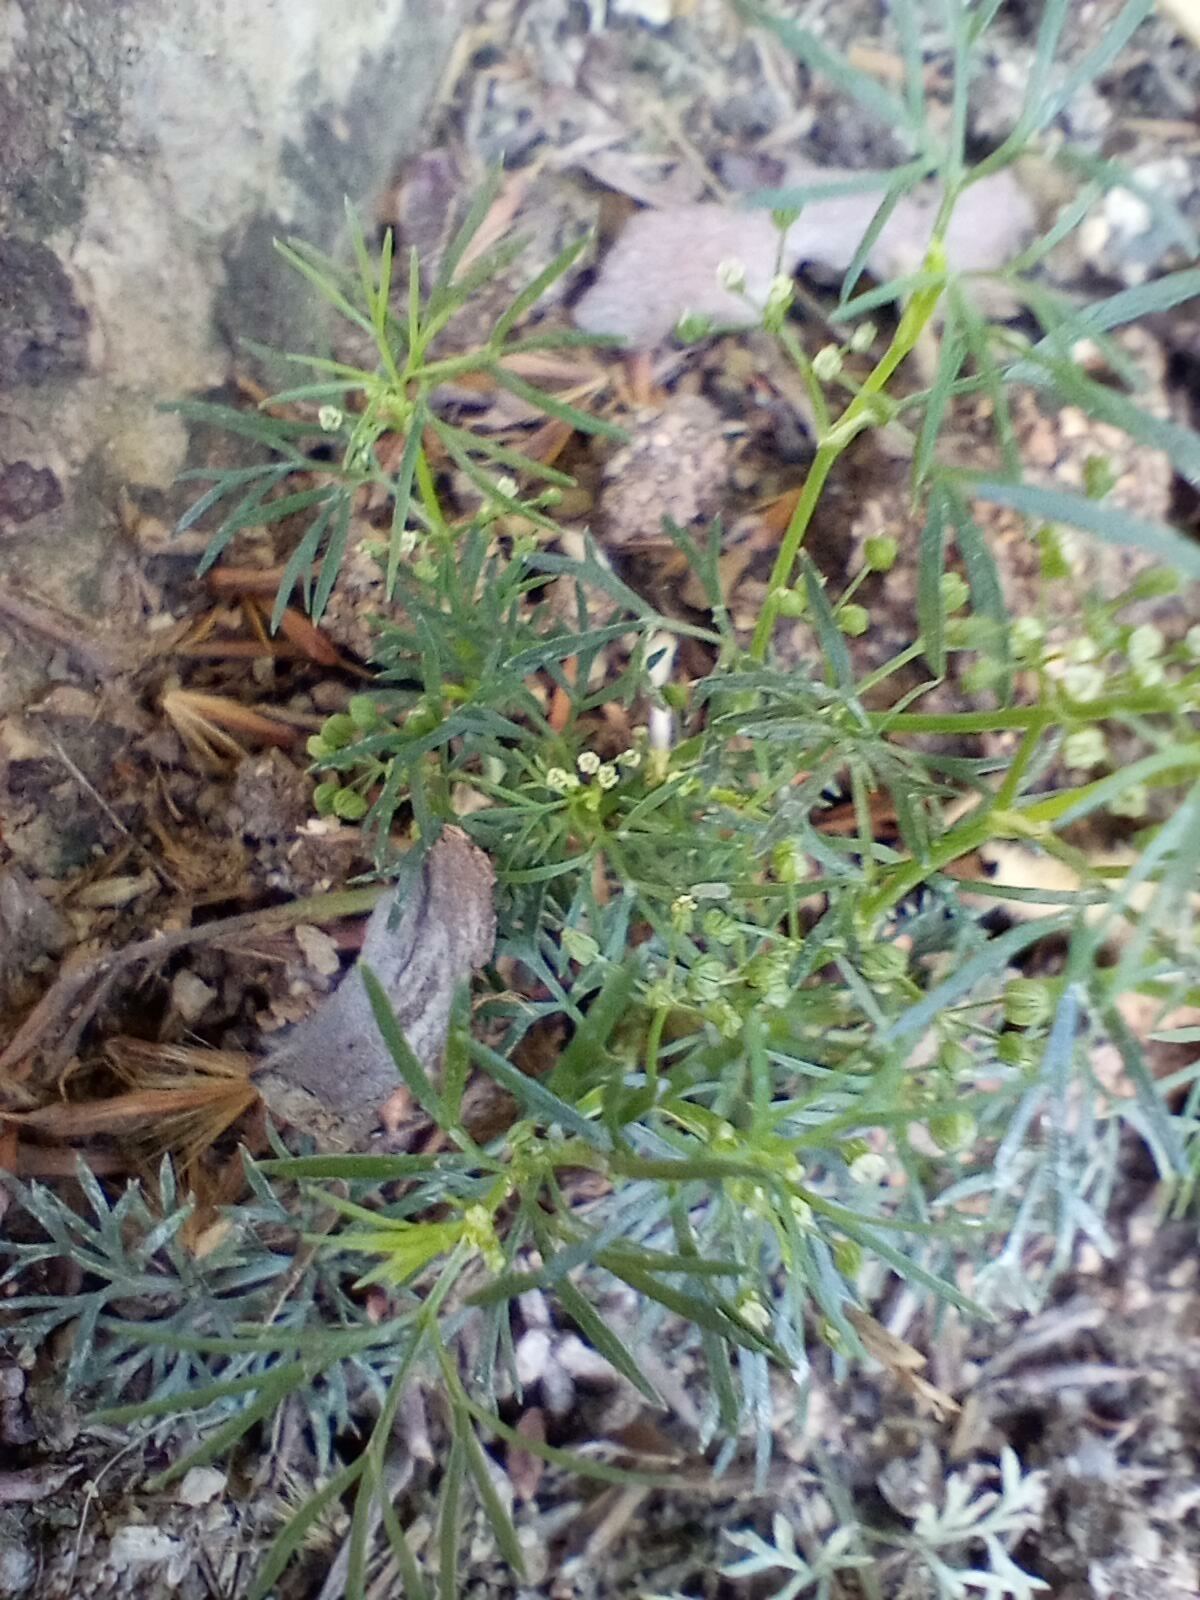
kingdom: Plantae
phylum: Tracheophyta
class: Magnoliopsida
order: Apiales
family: Apiaceae
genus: Cyclospermum
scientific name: Cyclospermum leptophyllum
